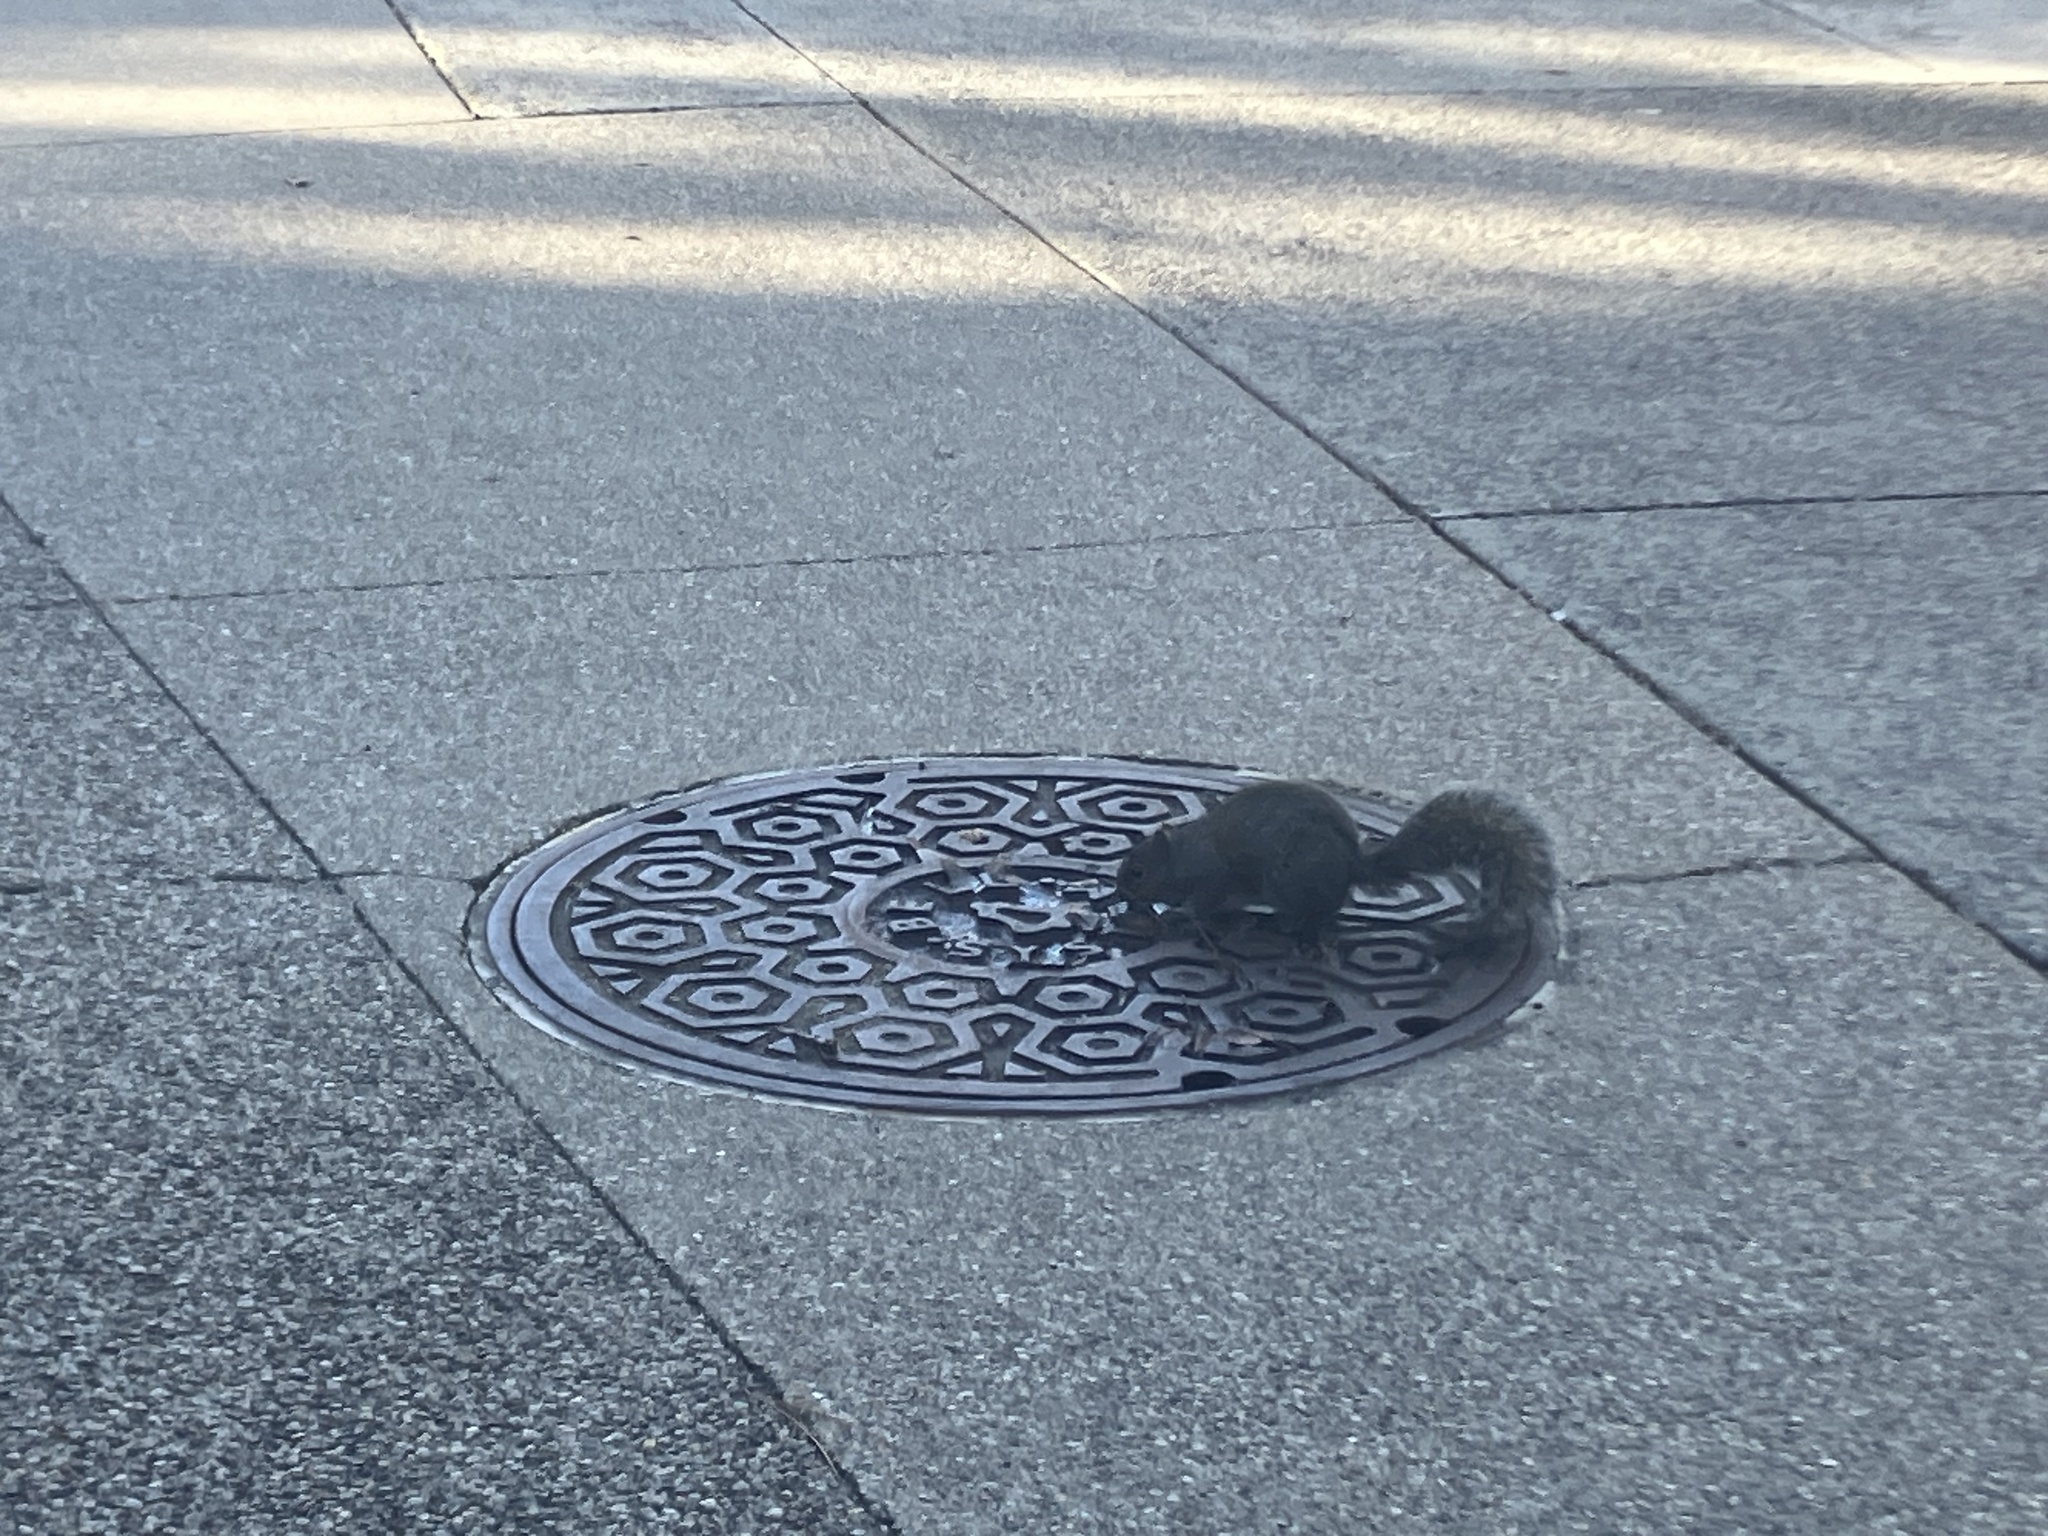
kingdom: Animalia
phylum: Chordata
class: Mammalia
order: Rodentia
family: Sciuridae
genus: Sciurus
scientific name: Sciurus carolinensis
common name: Eastern gray squirrel
